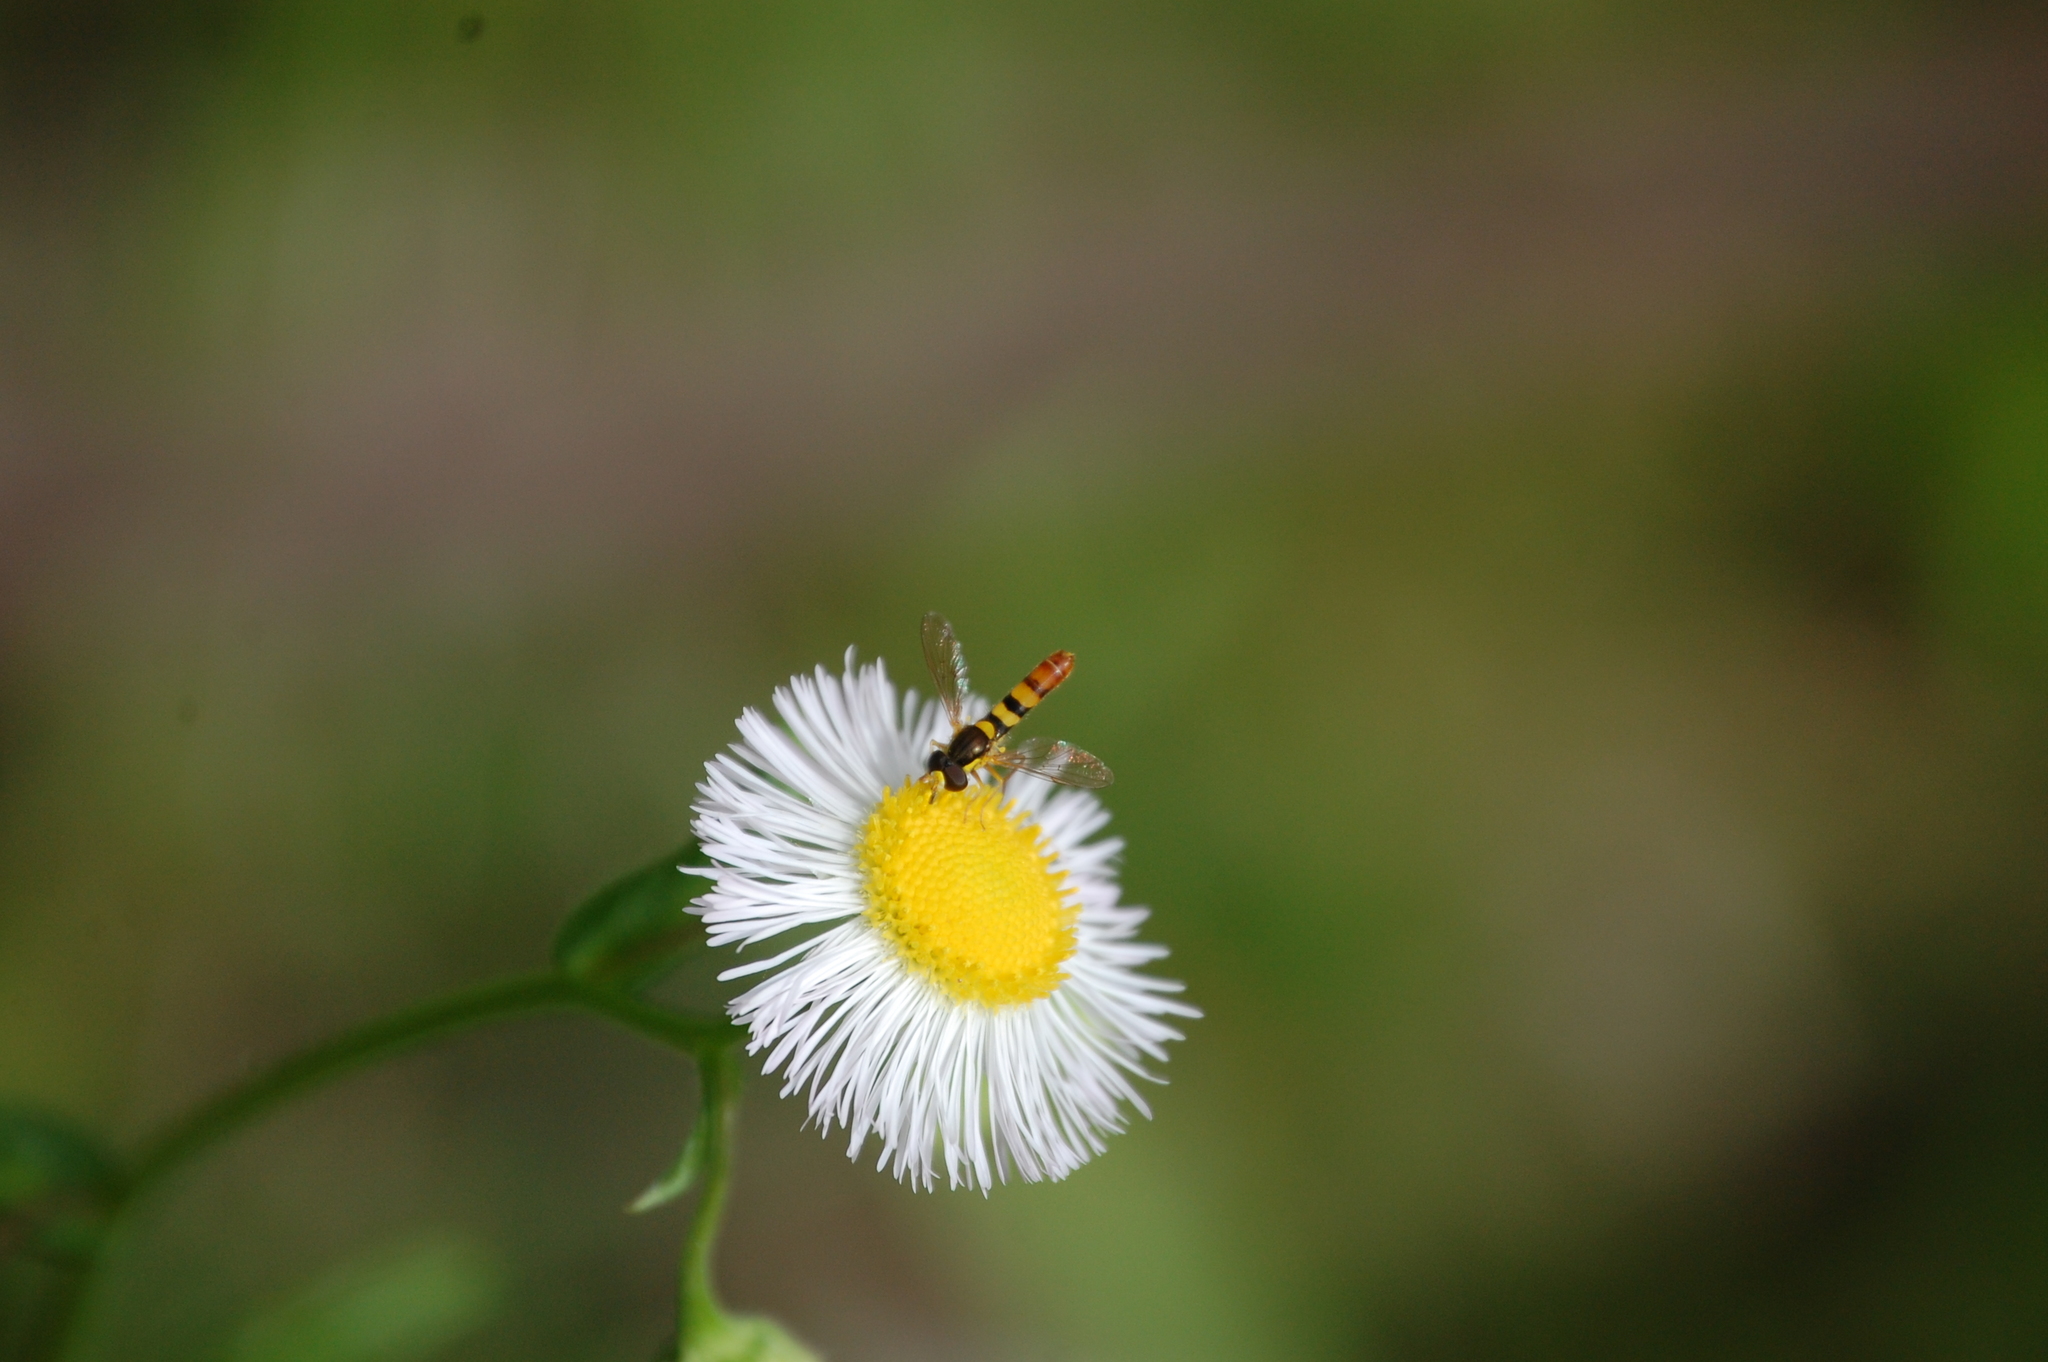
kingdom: Animalia
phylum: Arthropoda
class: Insecta
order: Diptera
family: Syrphidae
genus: Sphaerophoria
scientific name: Sphaerophoria contigua
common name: Tufted globetail
